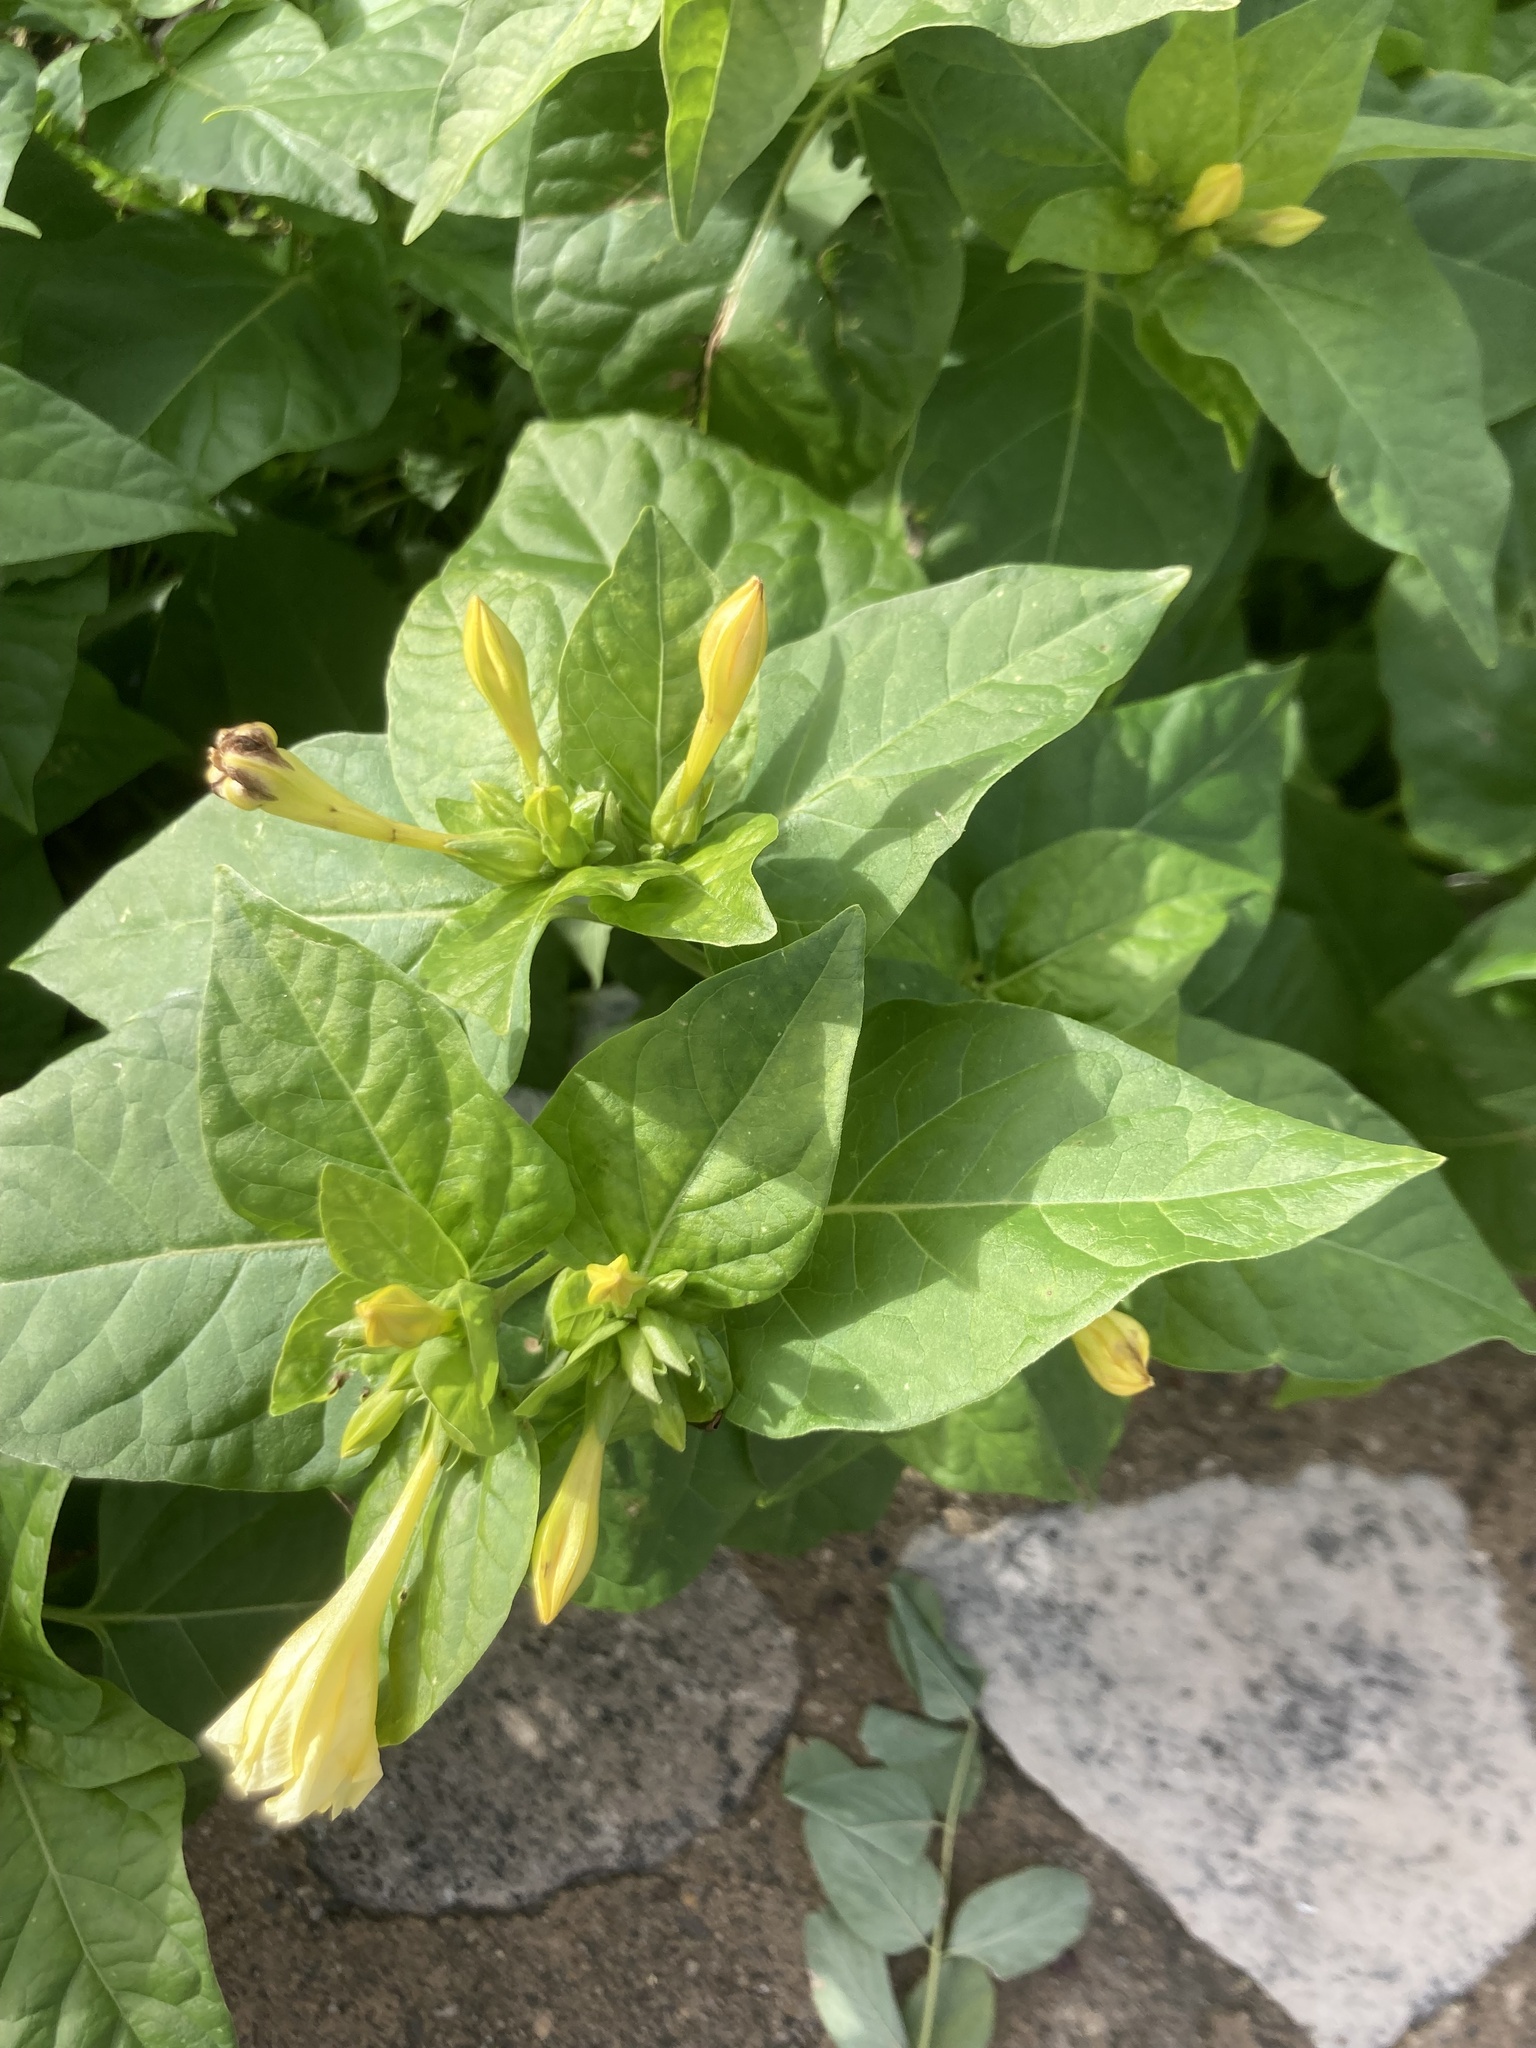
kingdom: Plantae
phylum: Tracheophyta
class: Magnoliopsida
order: Caryophyllales
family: Nyctaginaceae
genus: Mirabilis
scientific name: Mirabilis jalapa
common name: Marvel-of-peru
